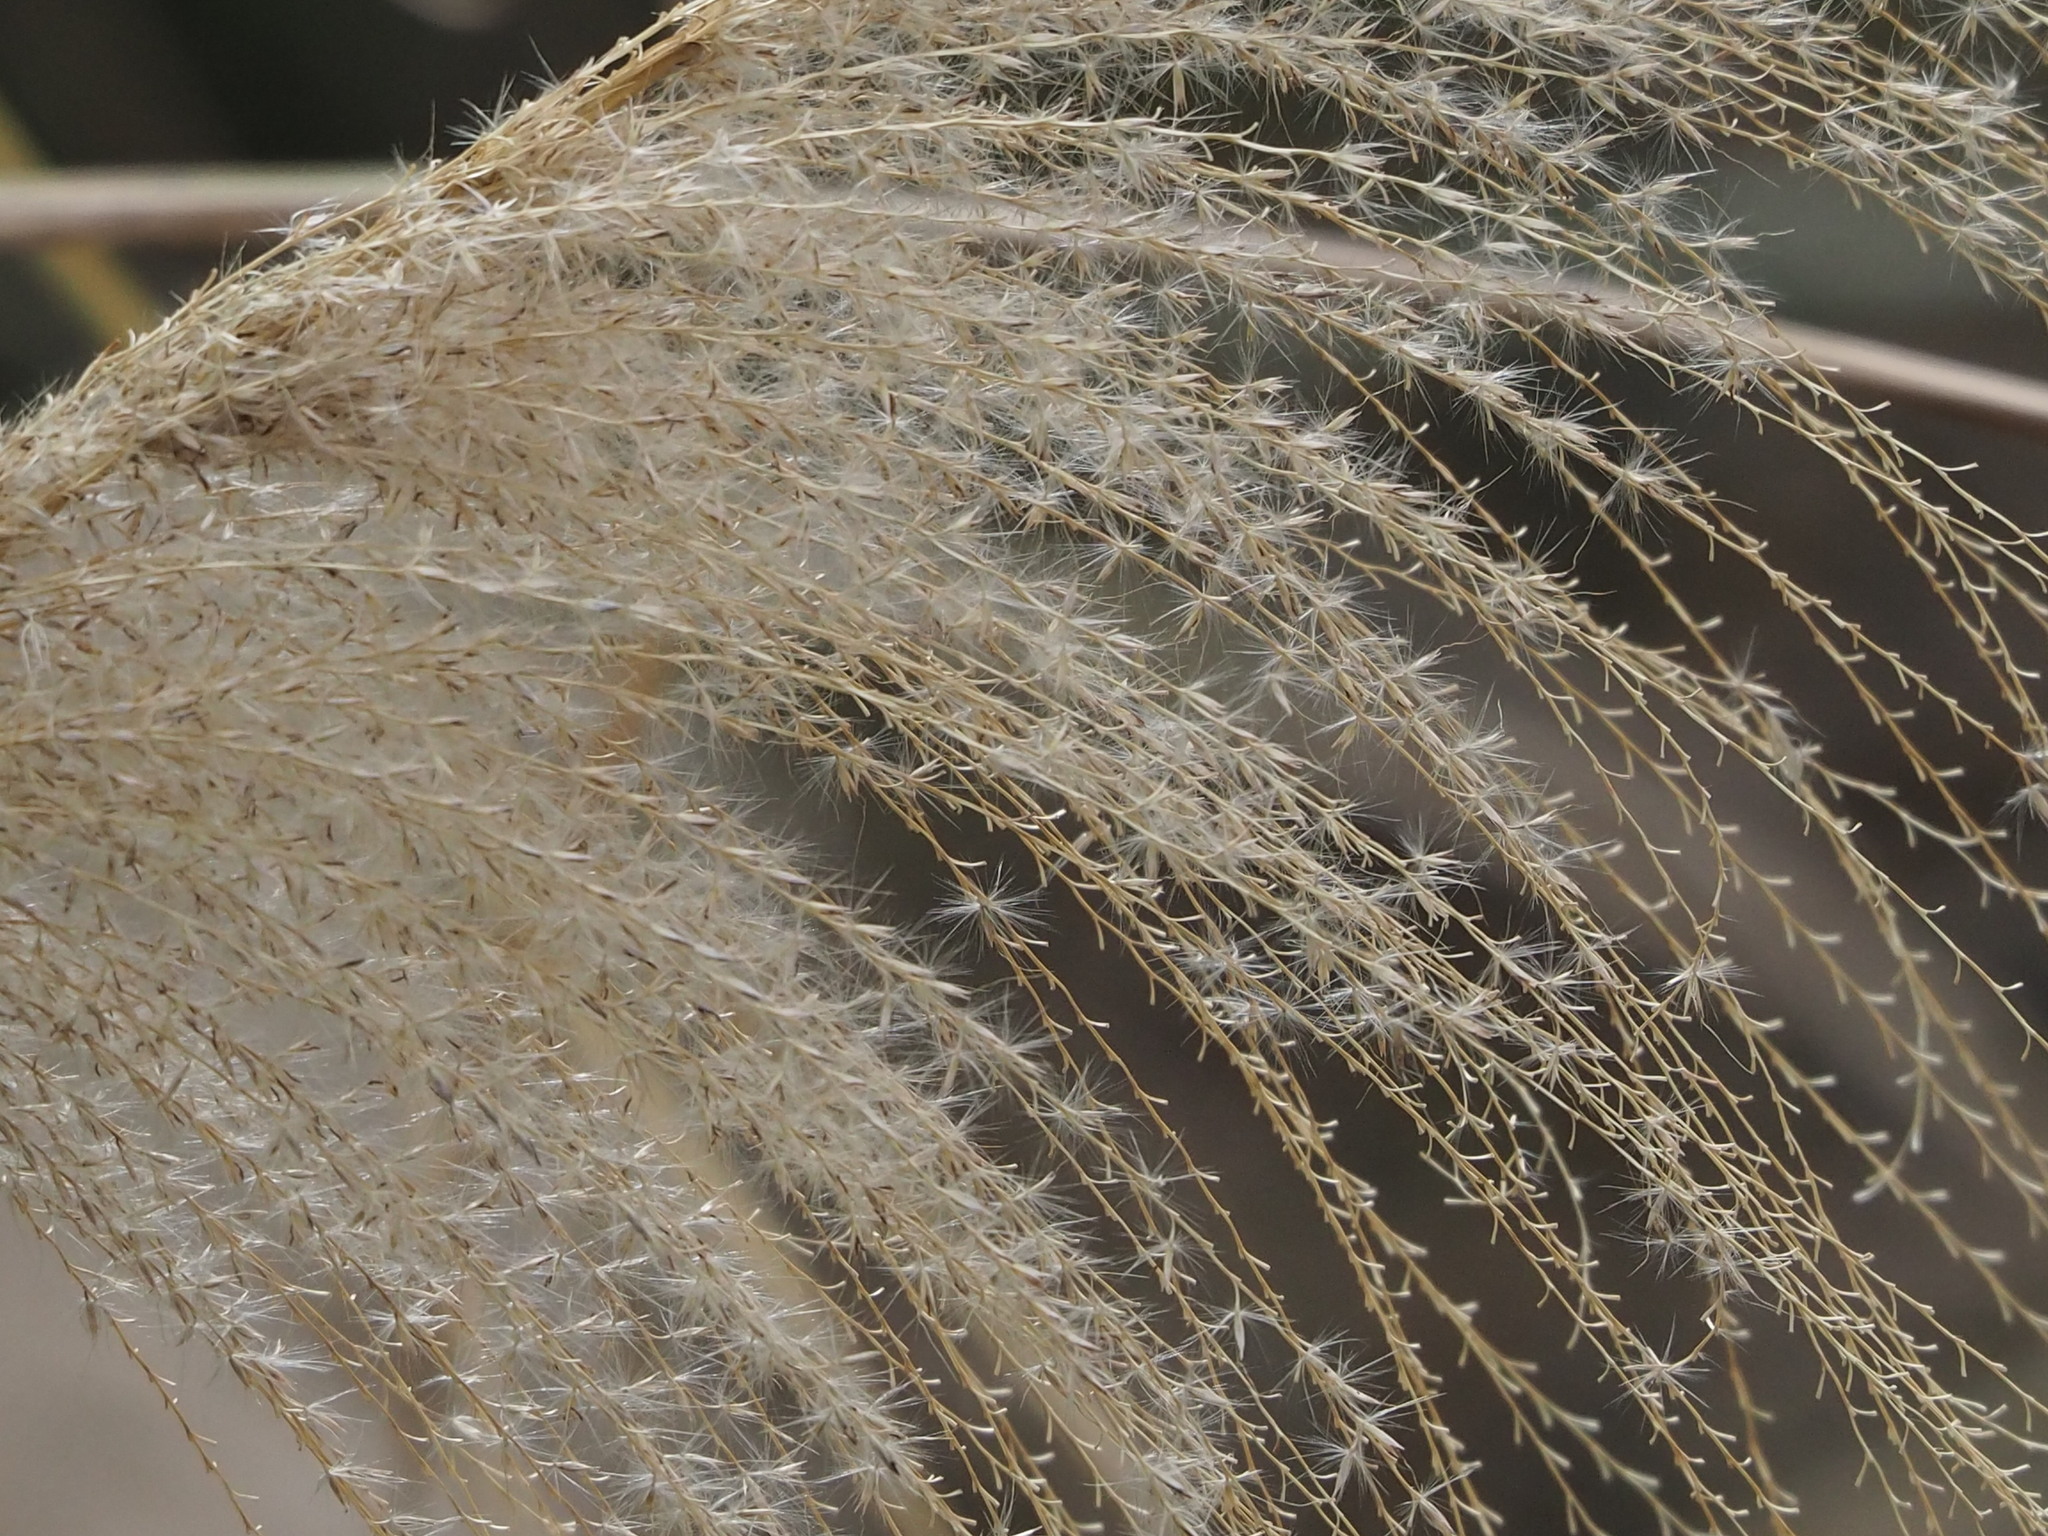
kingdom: Plantae
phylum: Tracheophyta
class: Liliopsida
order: Poales
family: Poaceae
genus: Miscanthus
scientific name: Miscanthus sinensis
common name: Chinese silvergrass
